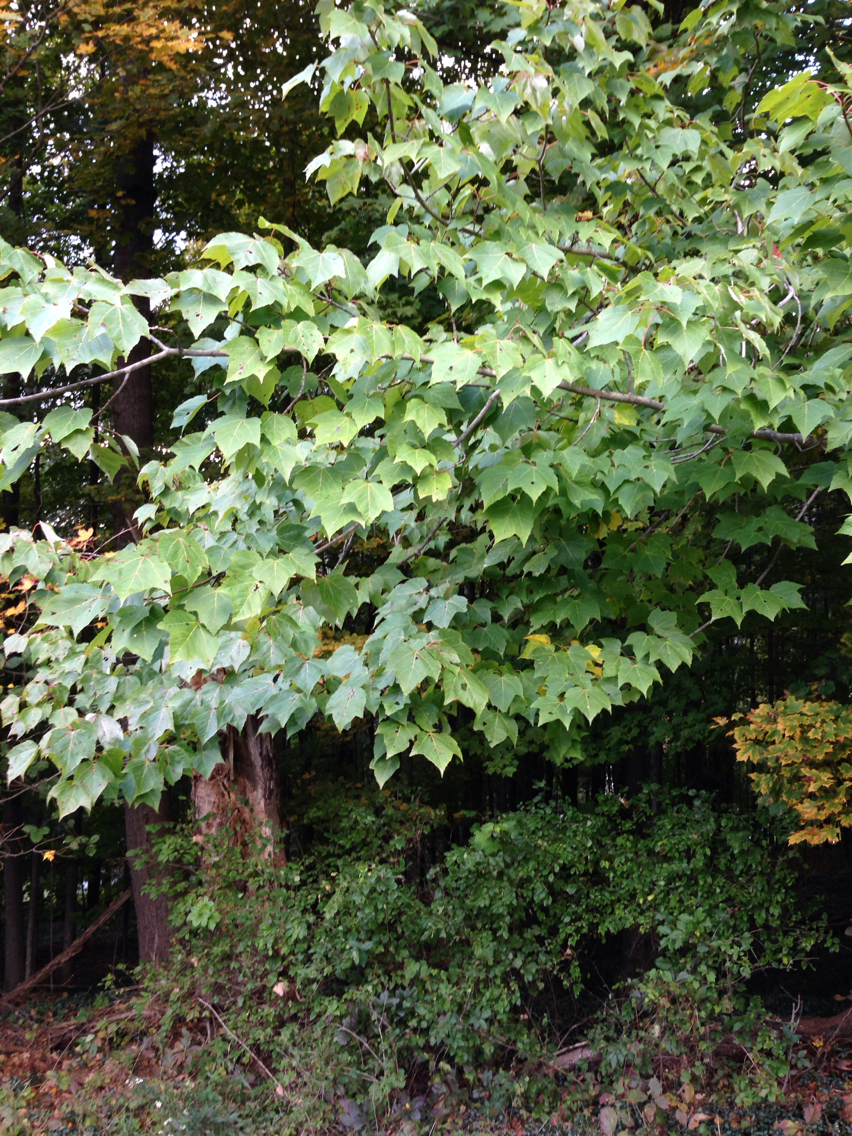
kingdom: Plantae
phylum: Tracheophyta
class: Magnoliopsida
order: Sapindales
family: Sapindaceae
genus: Acer
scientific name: Acer rubrum
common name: Red maple
